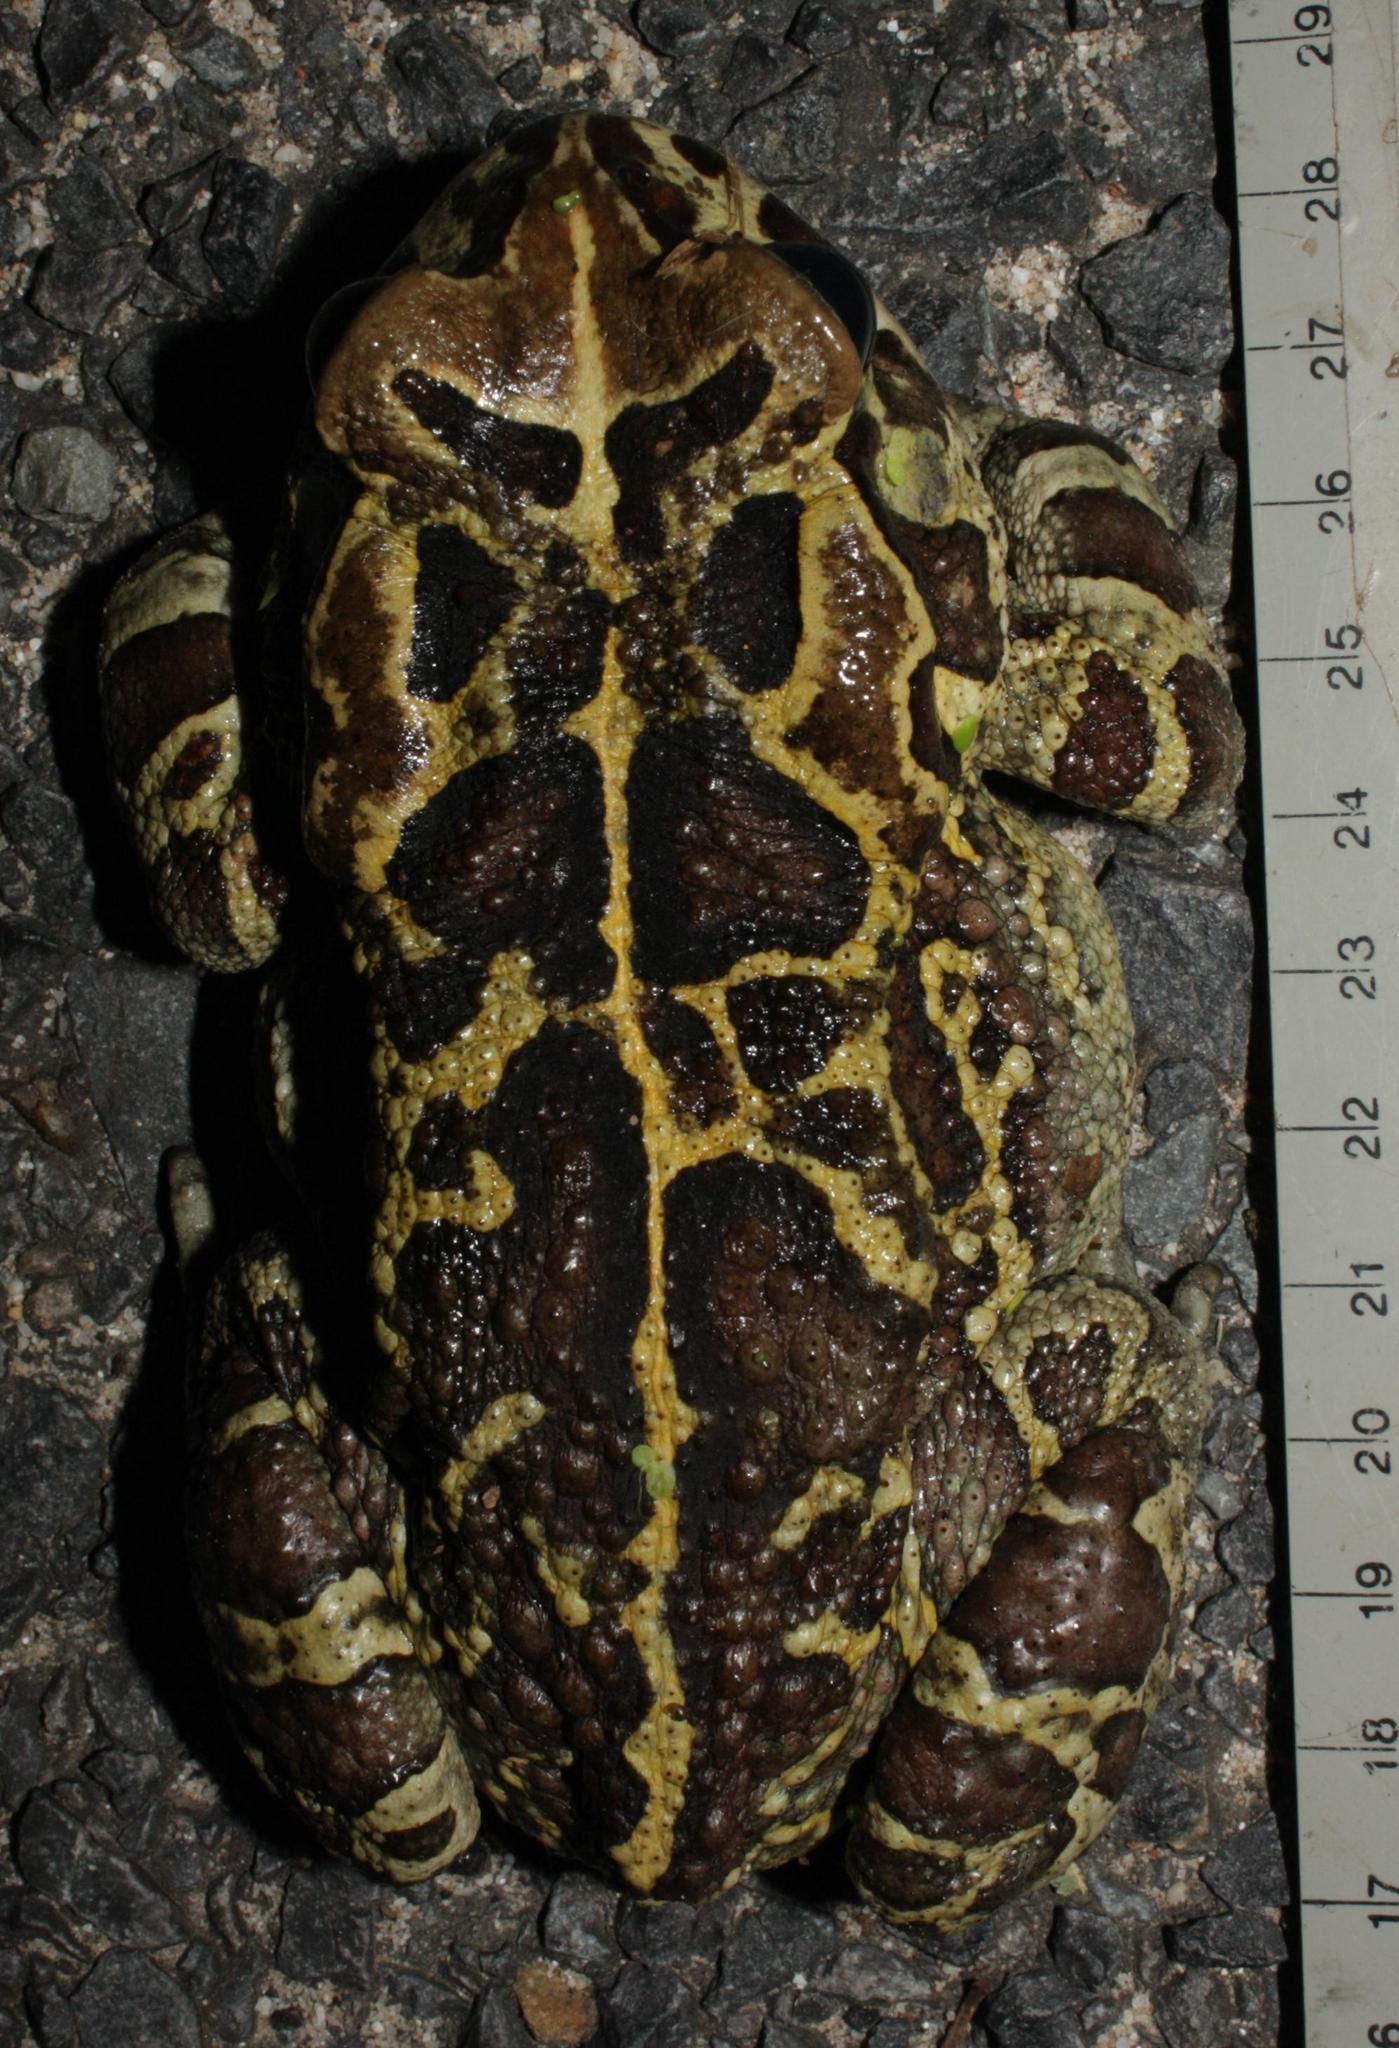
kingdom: Animalia
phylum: Chordata
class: Amphibia
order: Anura
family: Bufonidae
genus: Sclerophrys
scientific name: Sclerophrys pantherina
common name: Panther toad
